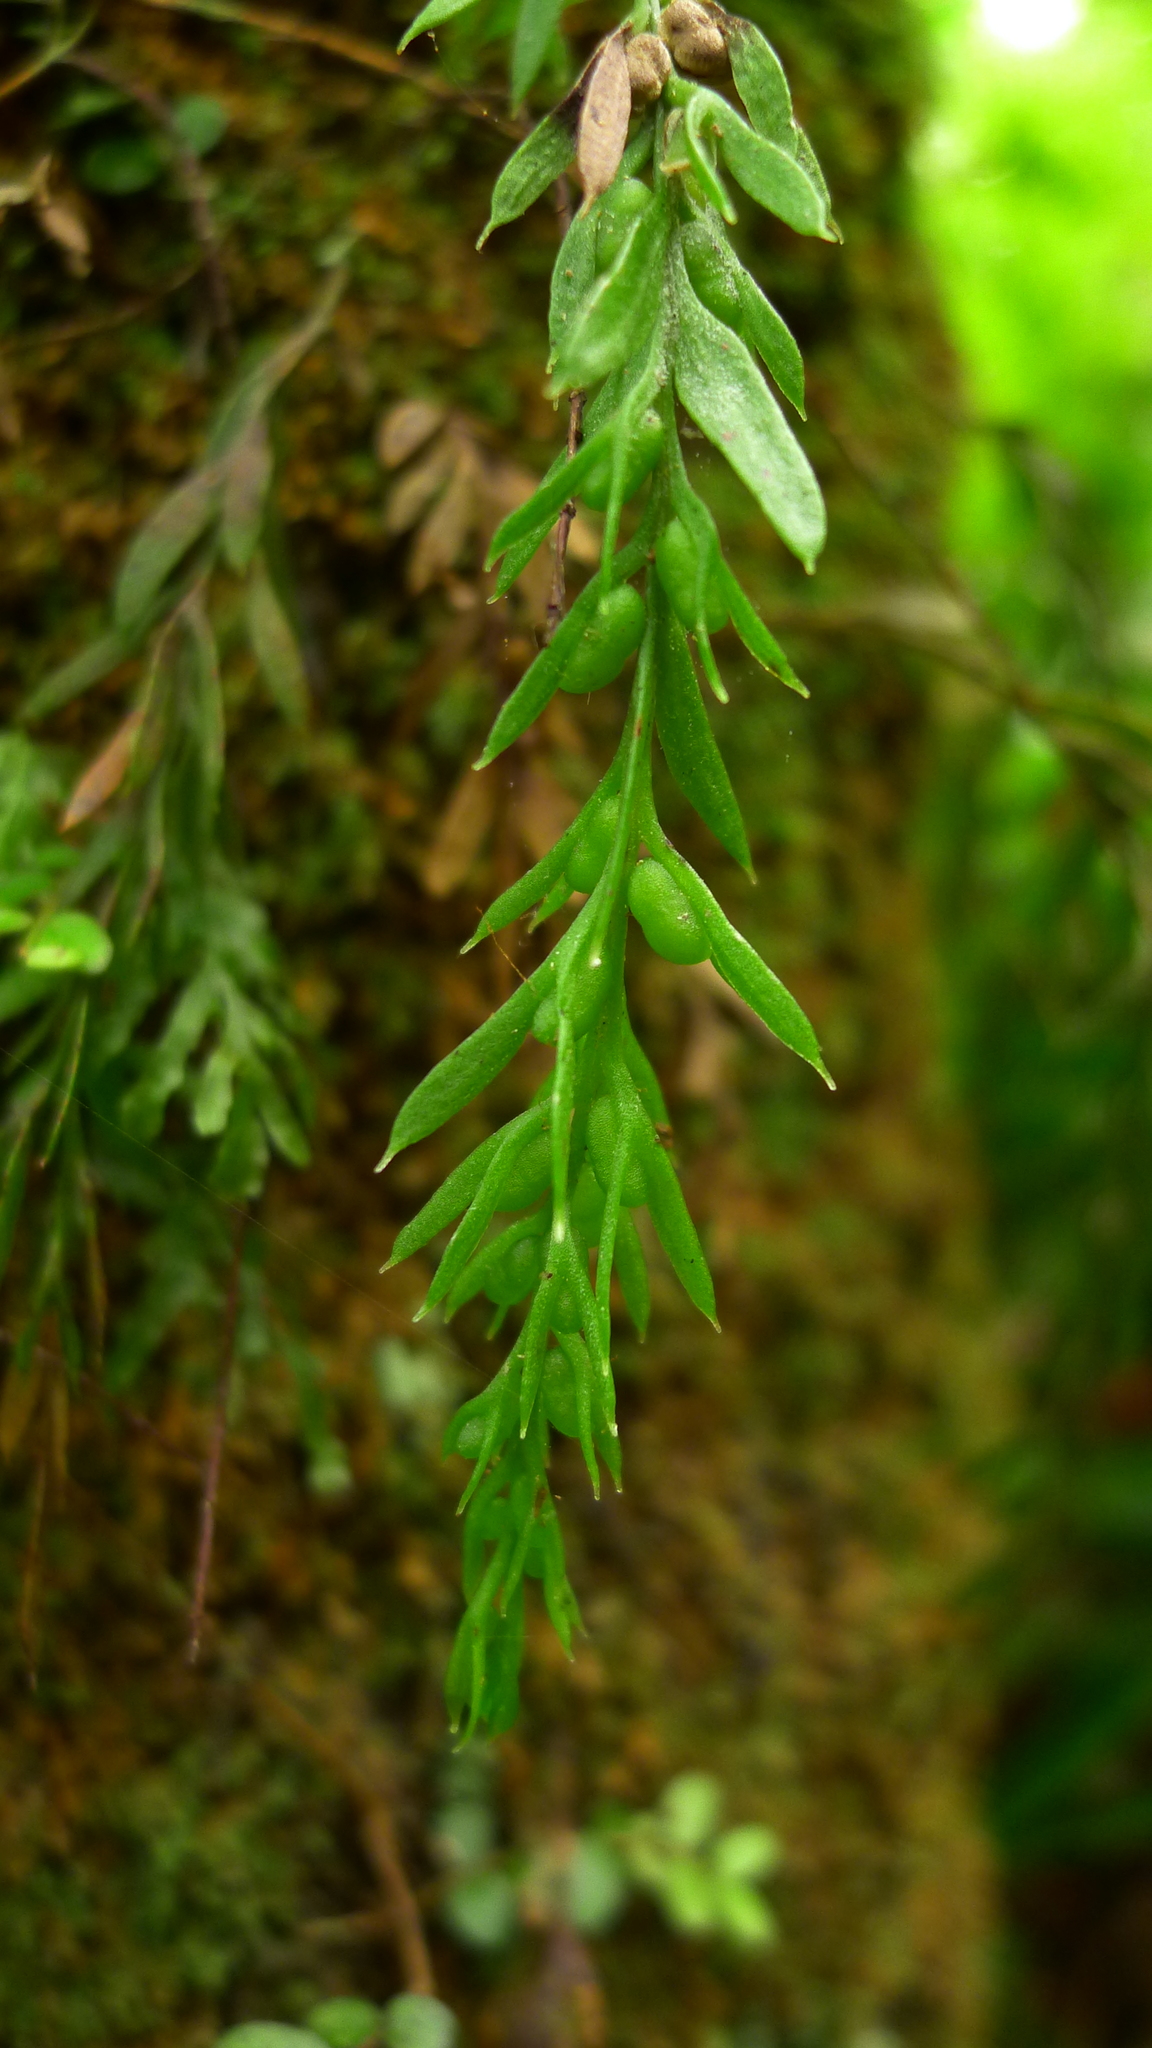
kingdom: Plantae
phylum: Tracheophyta
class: Polypodiopsida
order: Psilotales
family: Psilotaceae
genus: Tmesipteris
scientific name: Tmesipteris elongata
